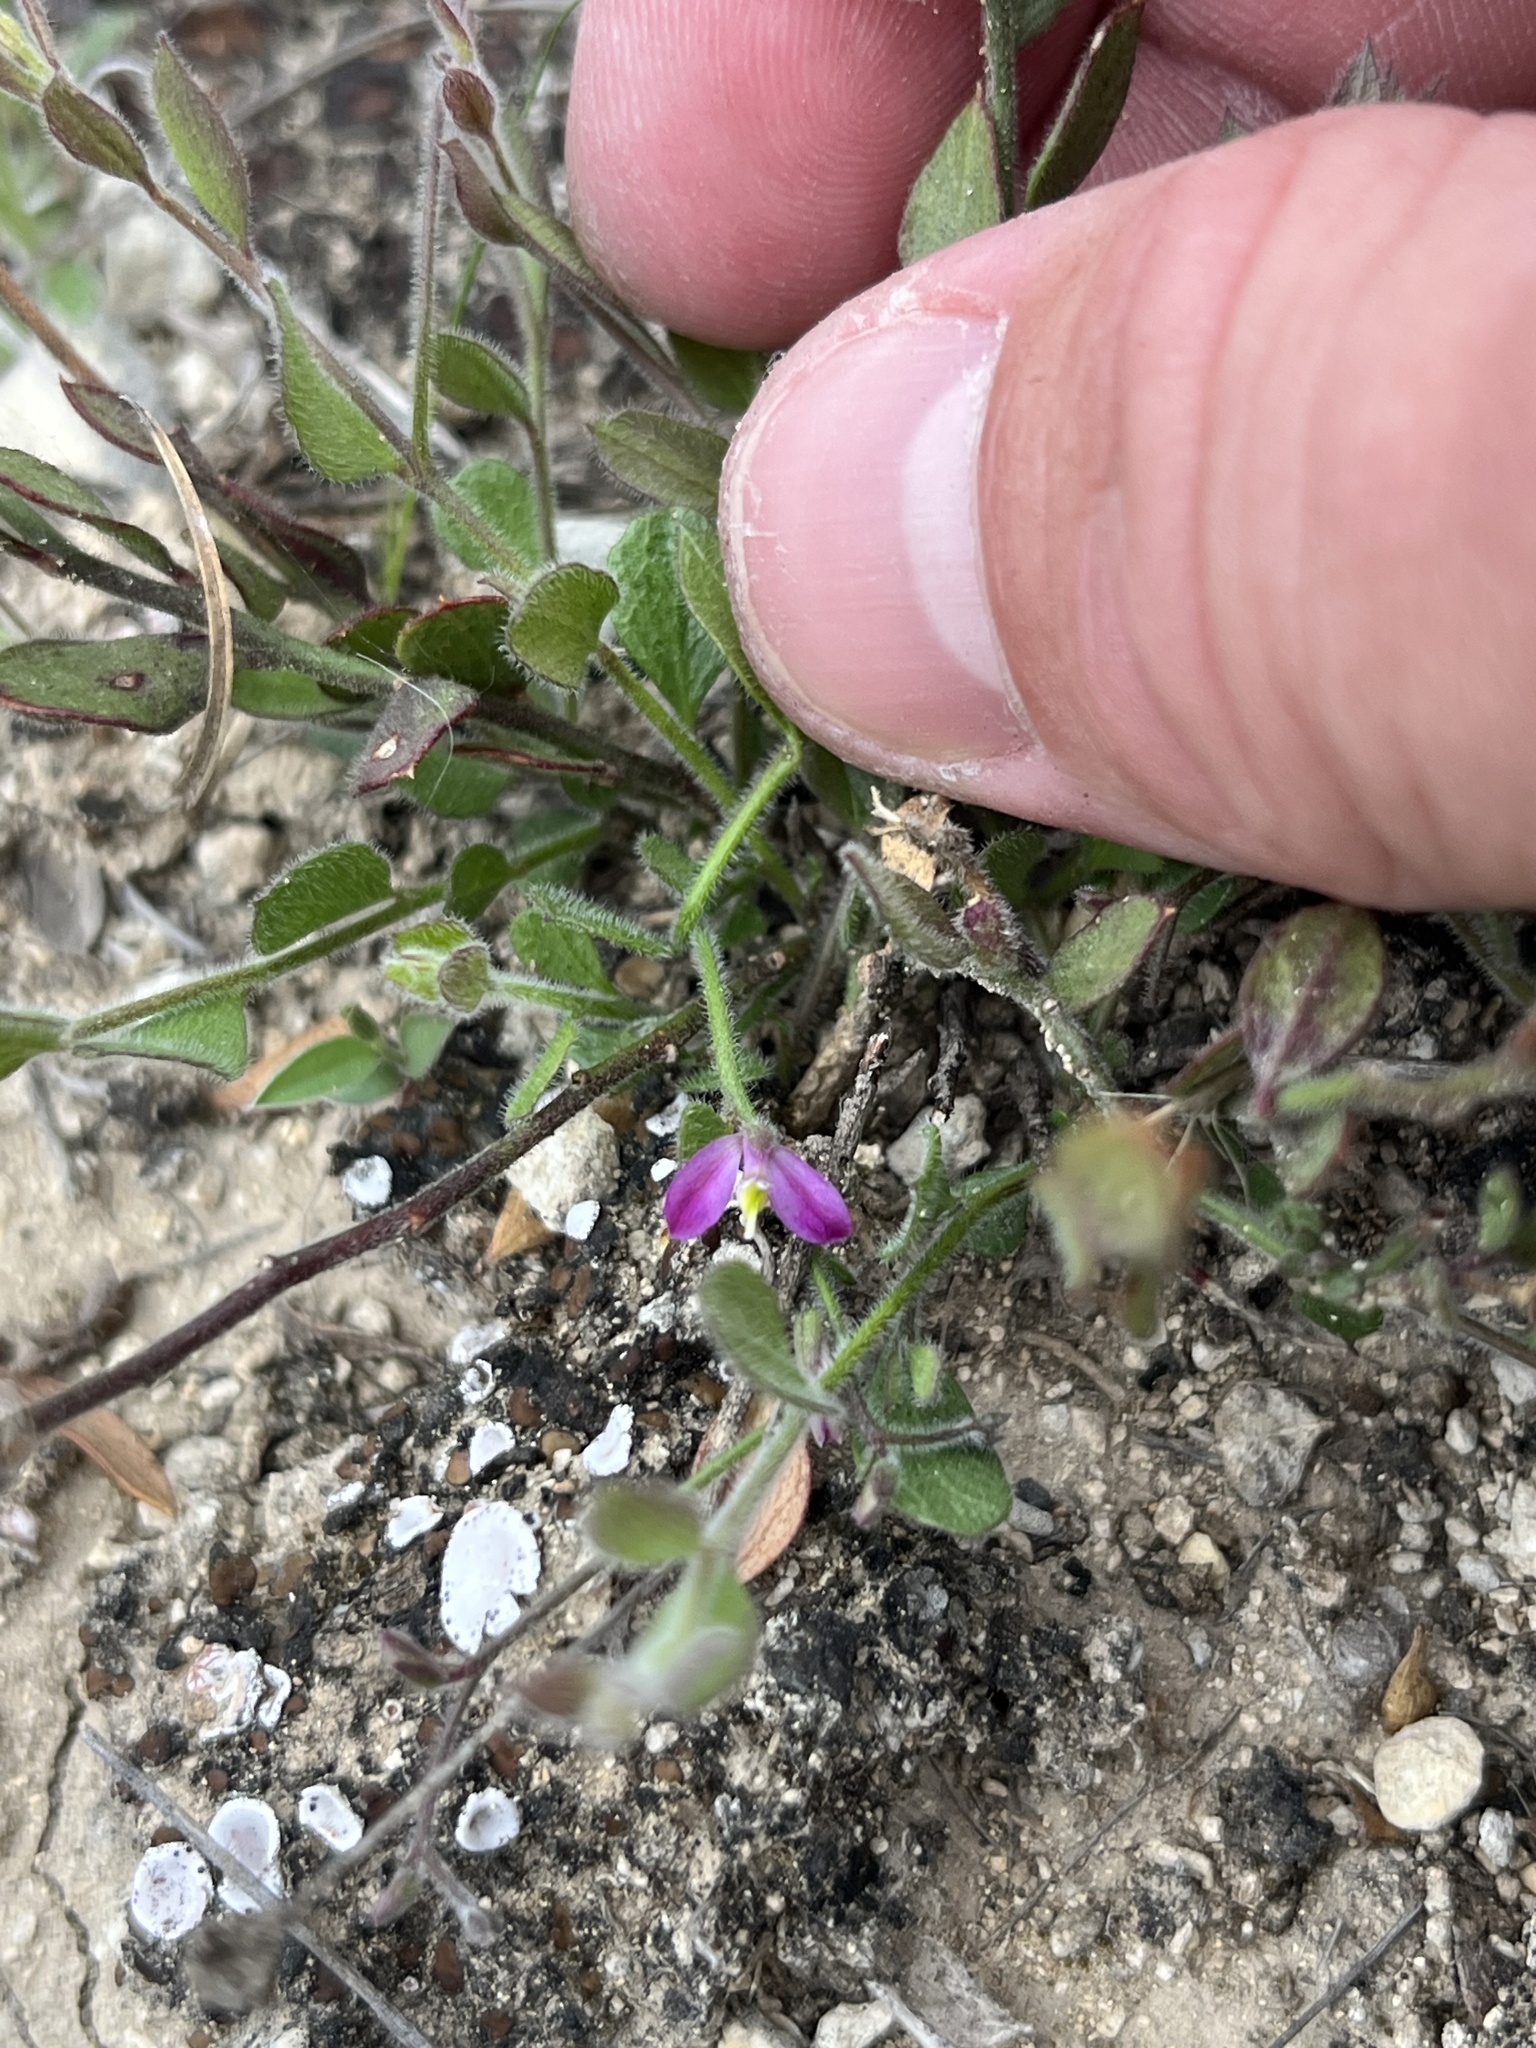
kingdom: Plantae
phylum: Tracheophyta
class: Magnoliopsida
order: Fabales
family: Polygalaceae
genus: Rhinotropis
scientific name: Rhinotropis lindheimeri
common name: Shrubby milkwort
